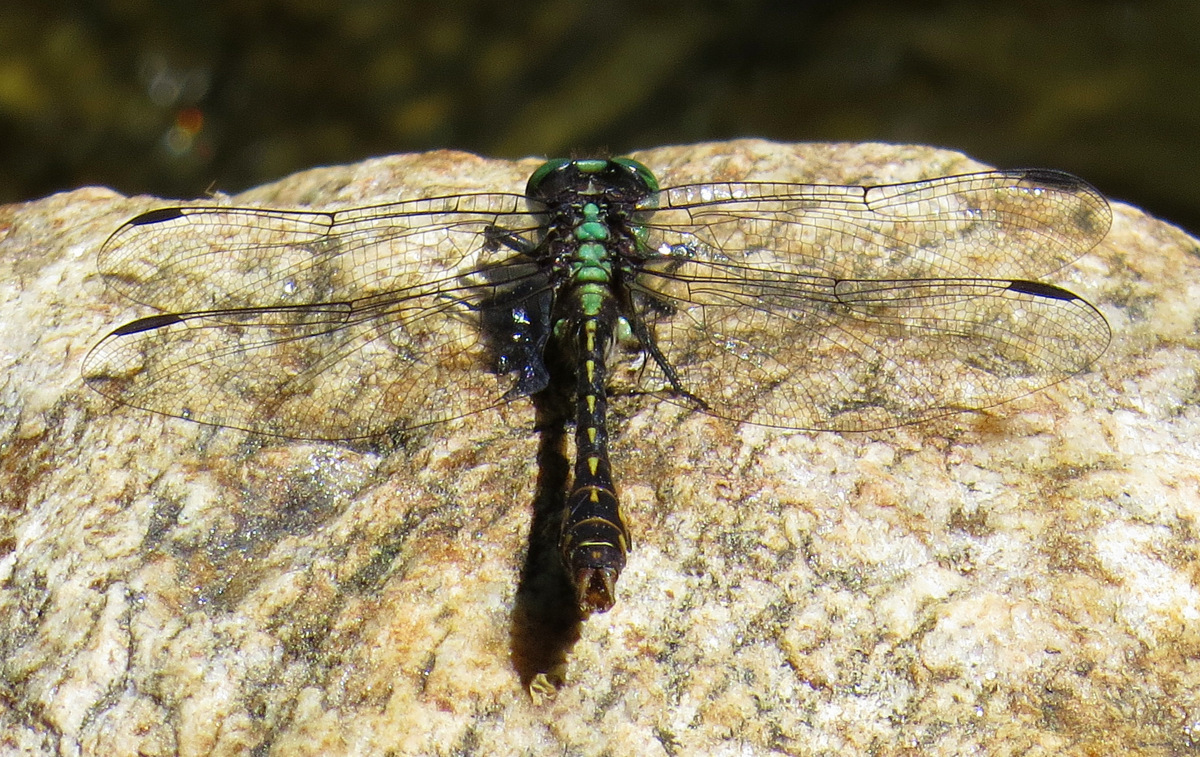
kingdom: Animalia
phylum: Arthropoda
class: Insecta
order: Odonata
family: Gomphidae
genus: Ophiogomphus
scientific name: Ophiogomphus mainensis
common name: Maine snaketail
